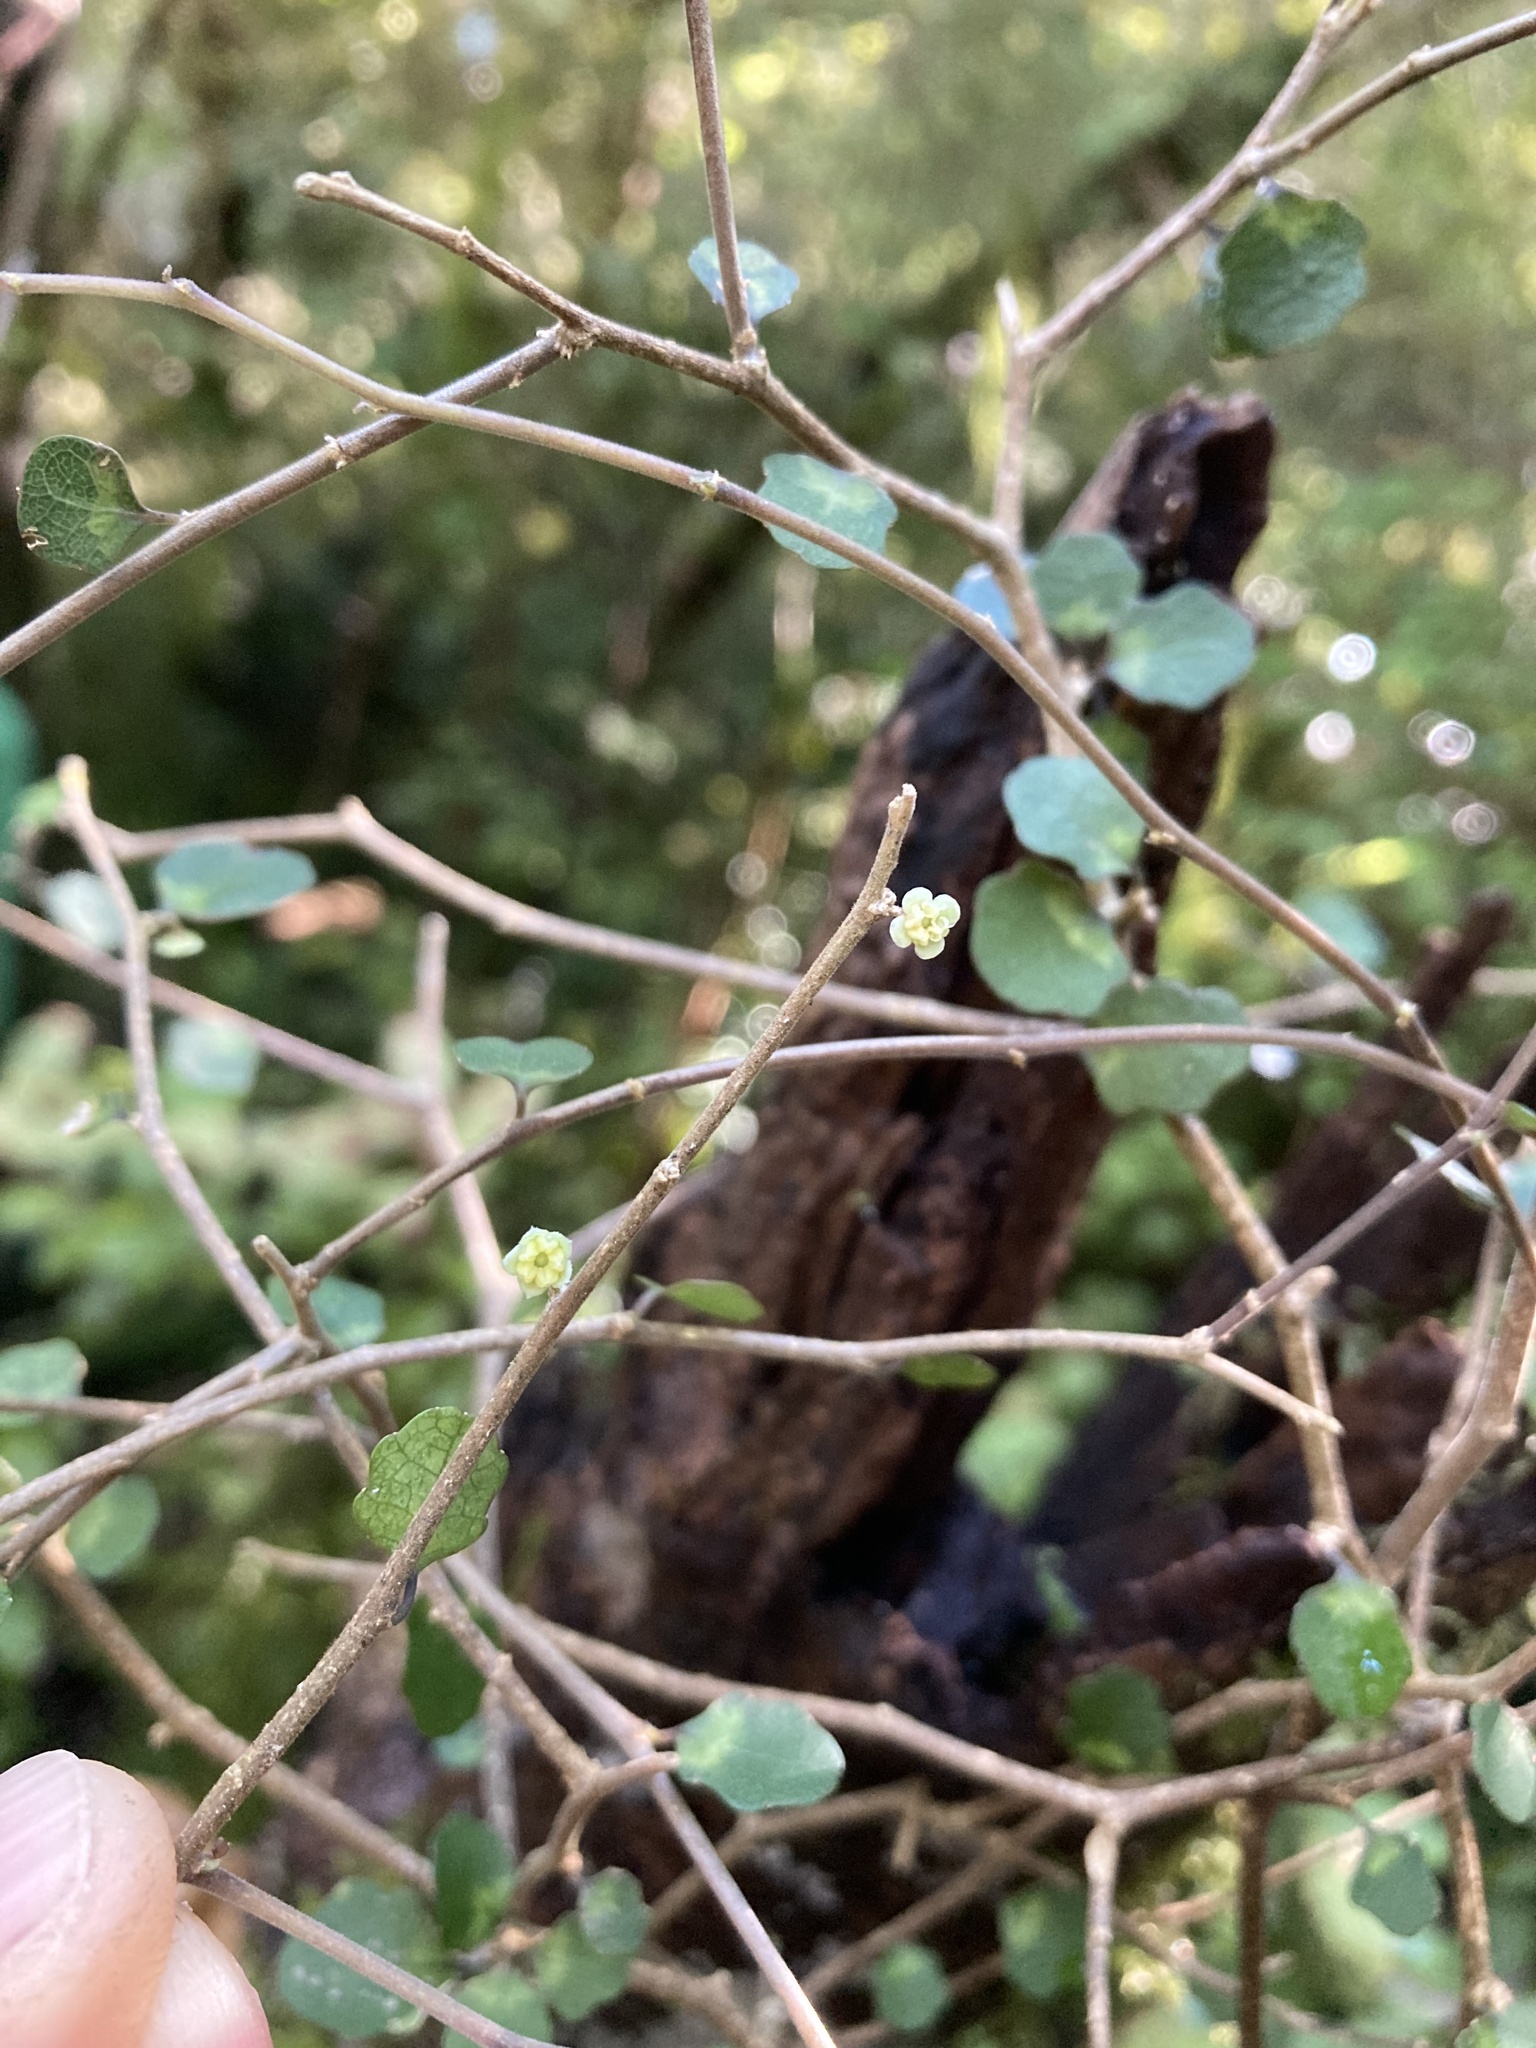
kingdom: Plantae
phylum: Tracheophyta
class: Magnoliopsida
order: Malpighiales
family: Violaceae
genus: Melicytus
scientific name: Melicytus micranthus
